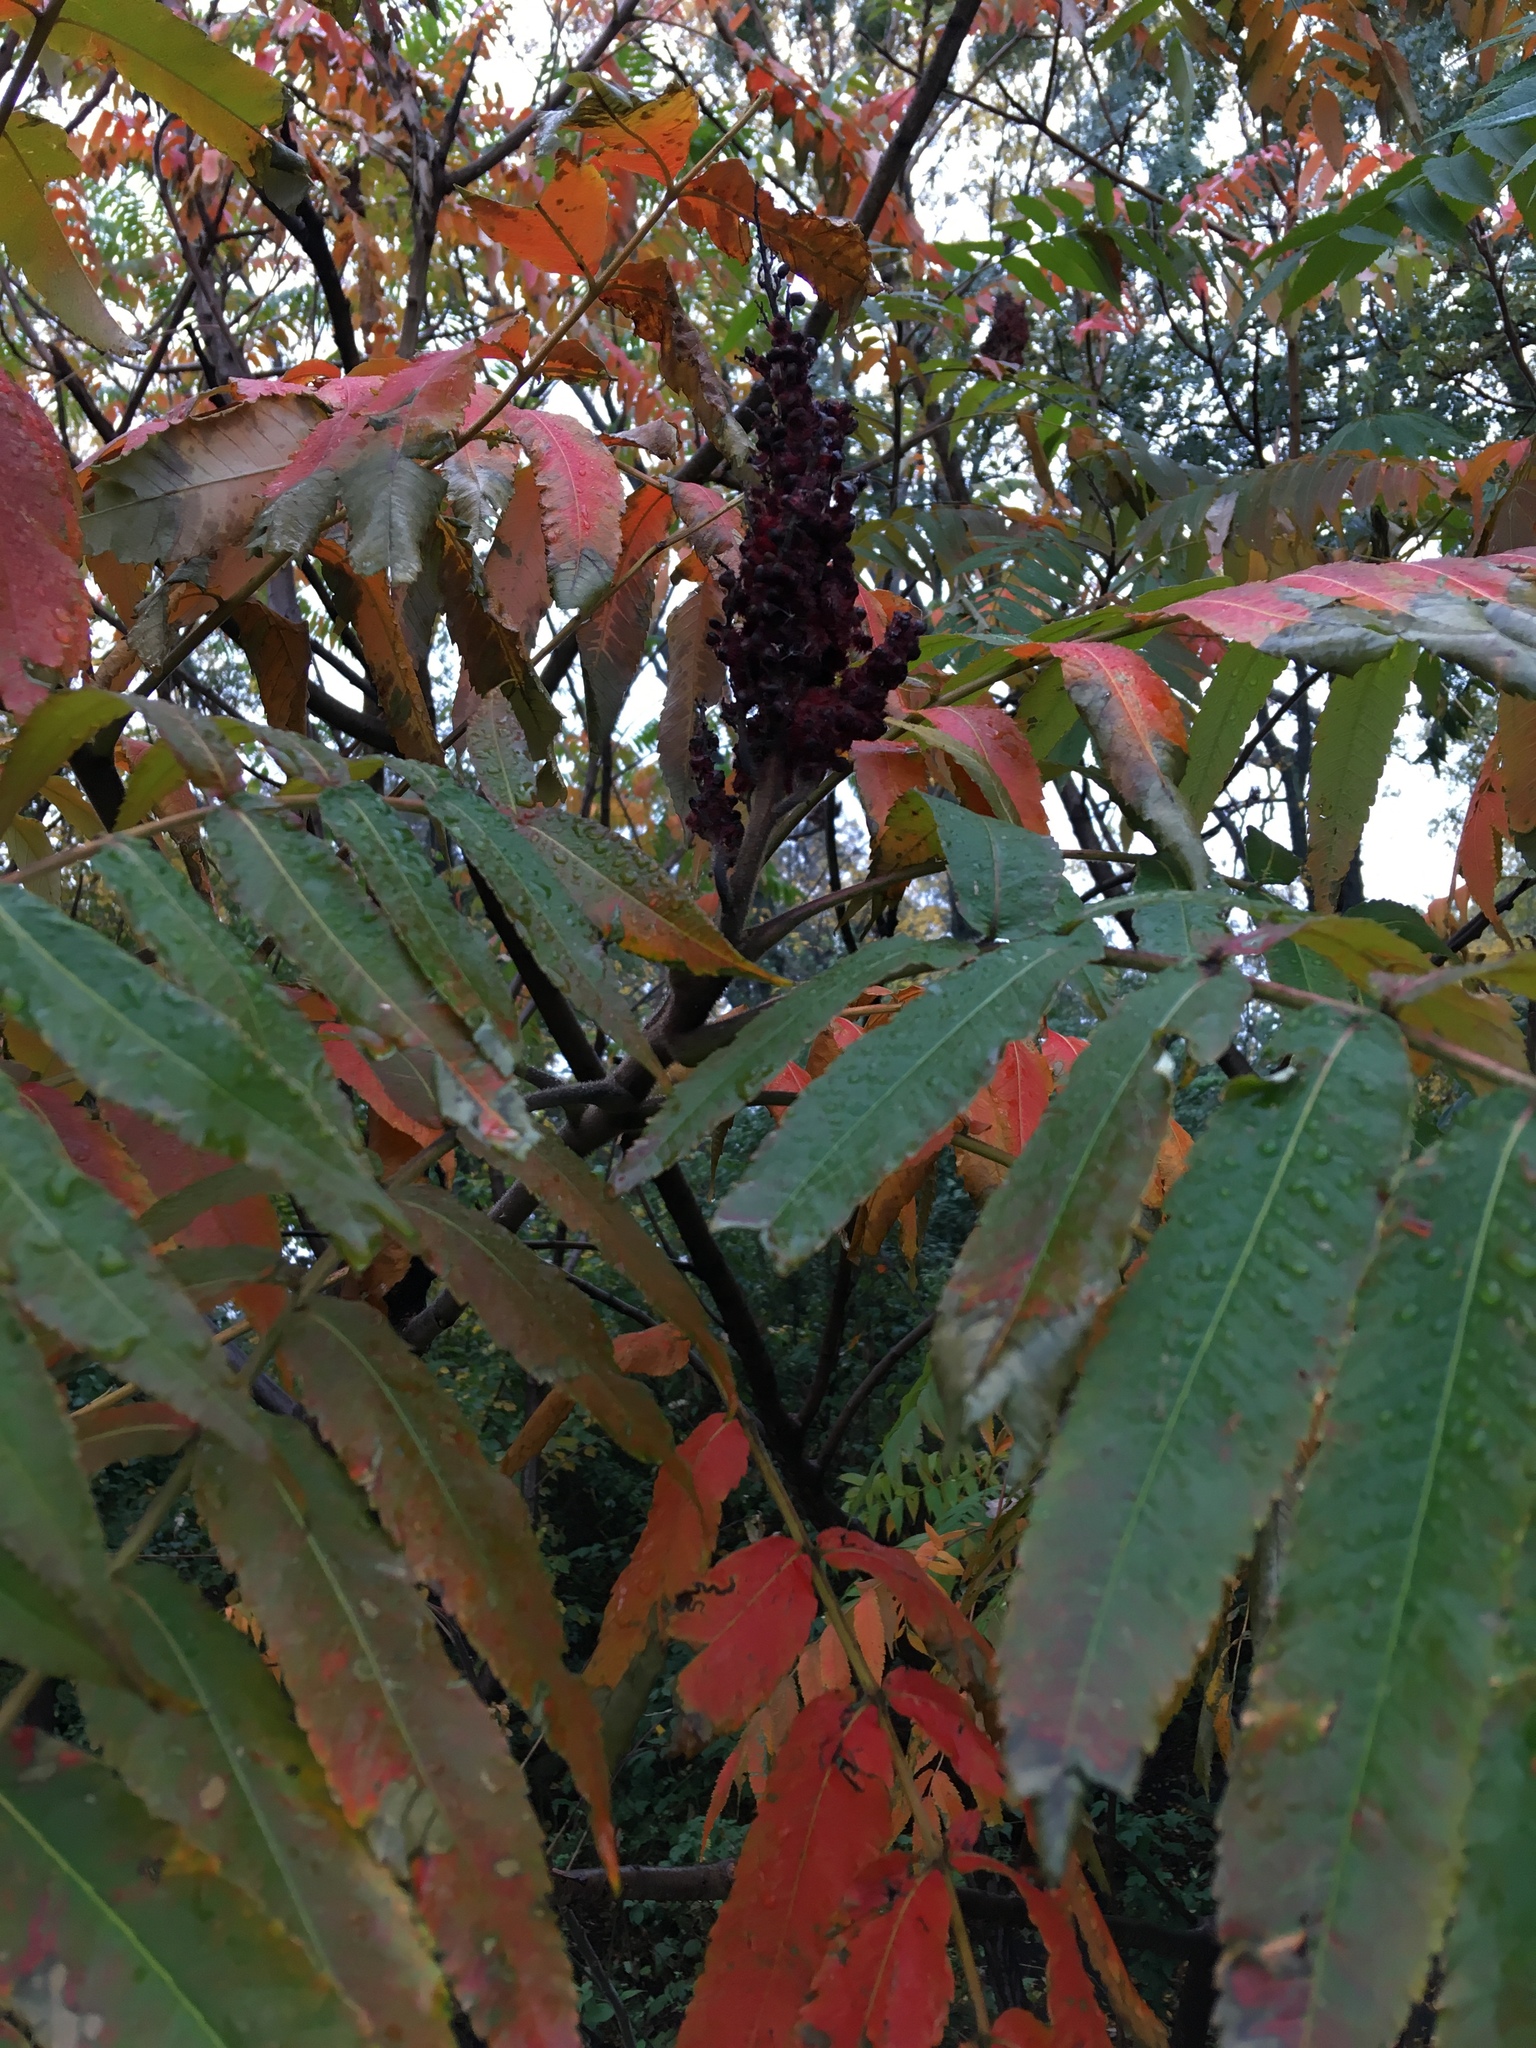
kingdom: Plantae
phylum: Tracheophyta
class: Magnoliopsida
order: Sapindales
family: Anacardiaceae
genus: Rhus
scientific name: Rhus typhina
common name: Staghorn sumac
